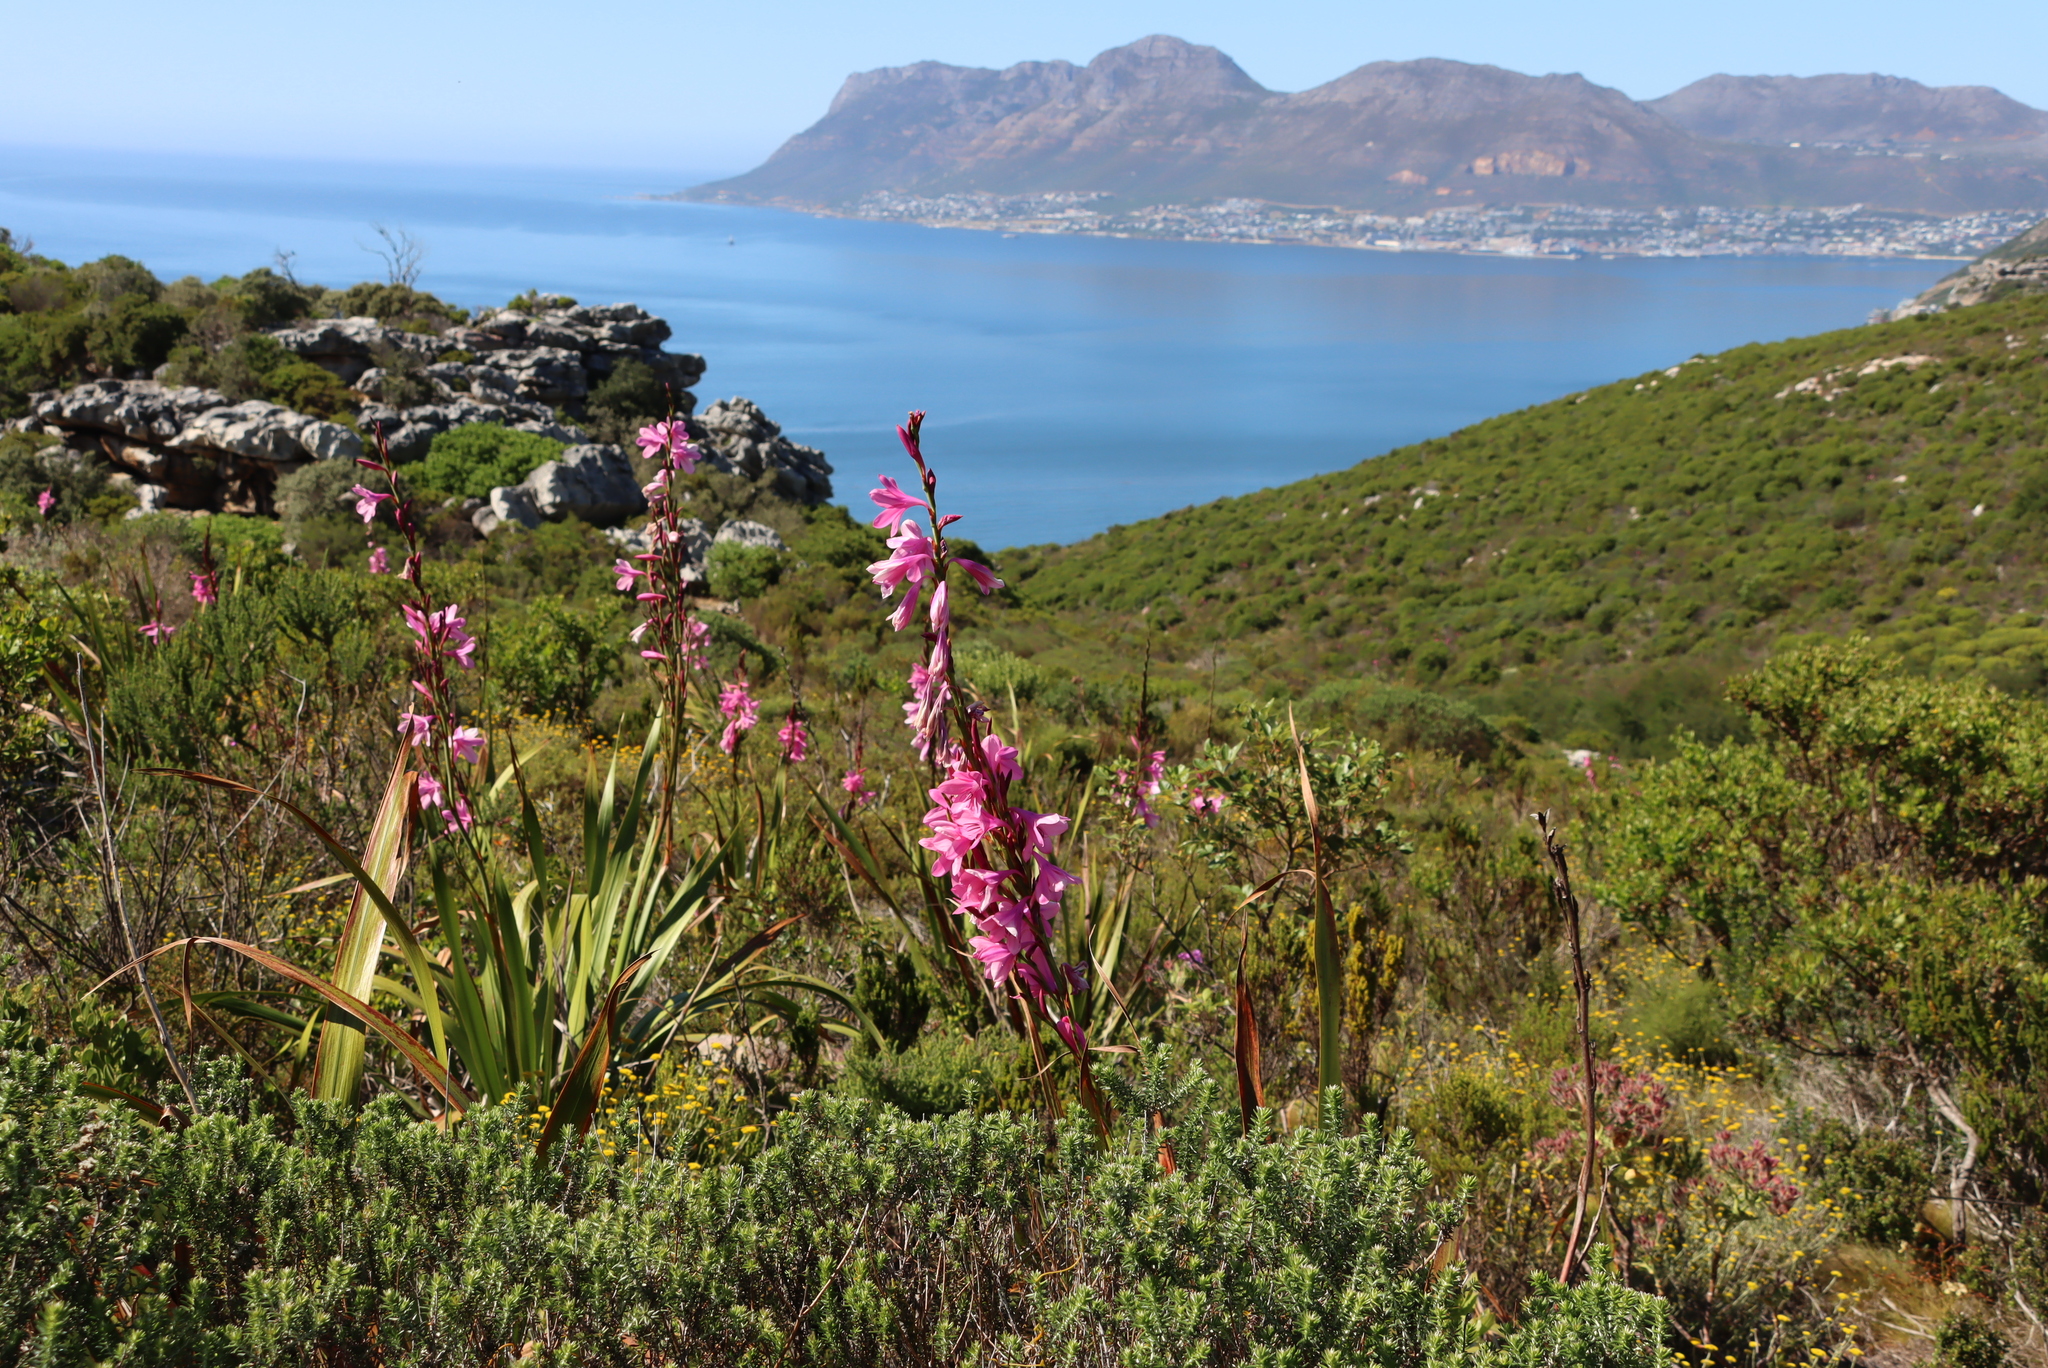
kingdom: Plantae
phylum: Tracheophyta
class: Liliopsida
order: Asparagales
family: Iridaceae
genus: Watsonia
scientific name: Watsonia borbonica
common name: Bugle-lily
